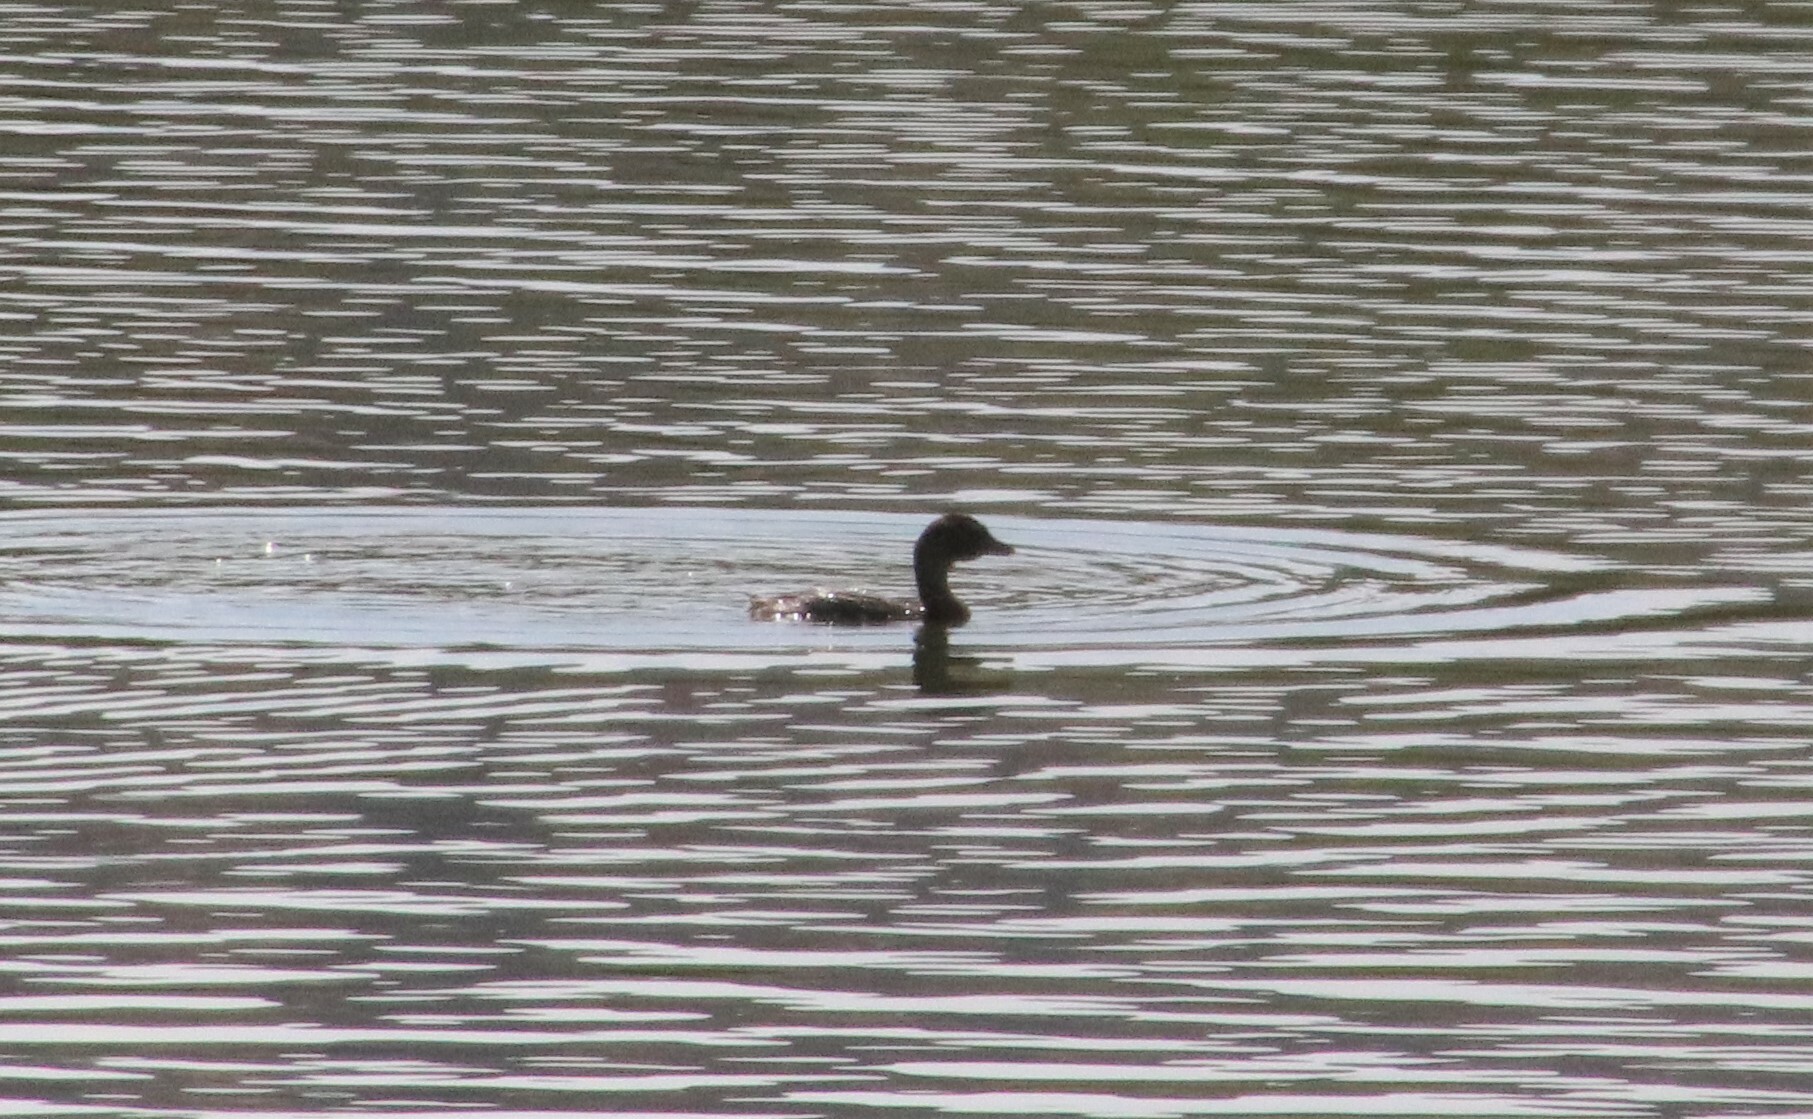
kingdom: Animalia
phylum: Chordata
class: Aves
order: Podicipediformes
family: Podicipedidae
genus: Podilymbus
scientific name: Podilymbus podiceps
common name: Pied-billed grebe
